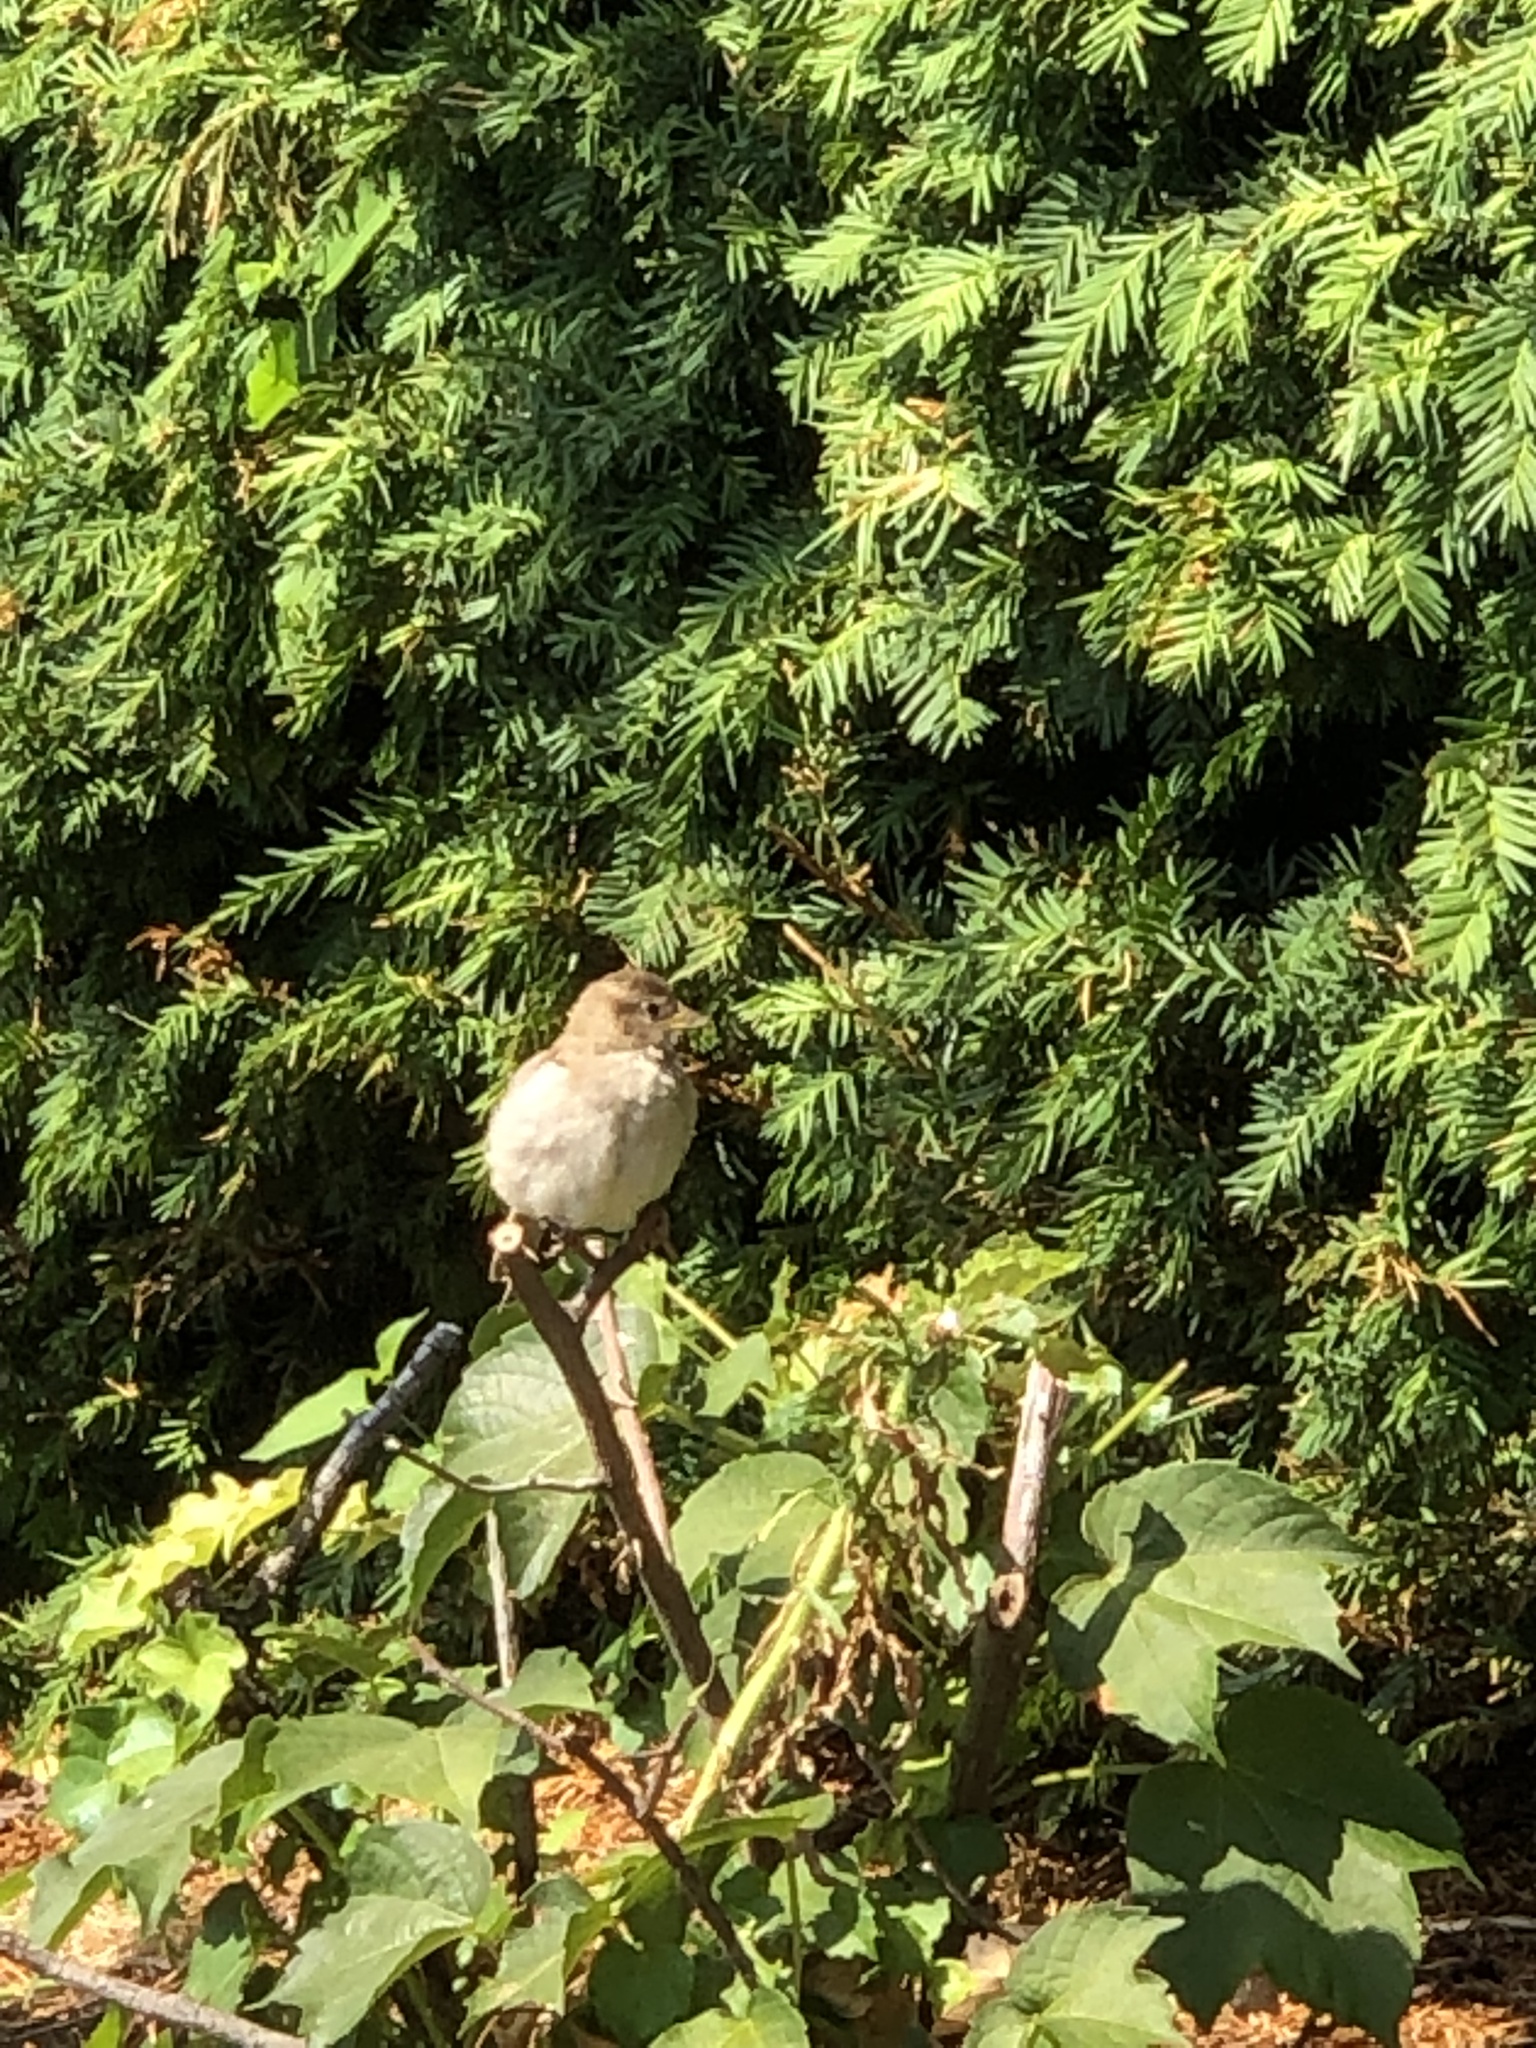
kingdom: Animalia
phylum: Chordata
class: Aves
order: Passeriformes
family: Passeridae
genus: Passer
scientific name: Passer domesticus
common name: House sparrow
